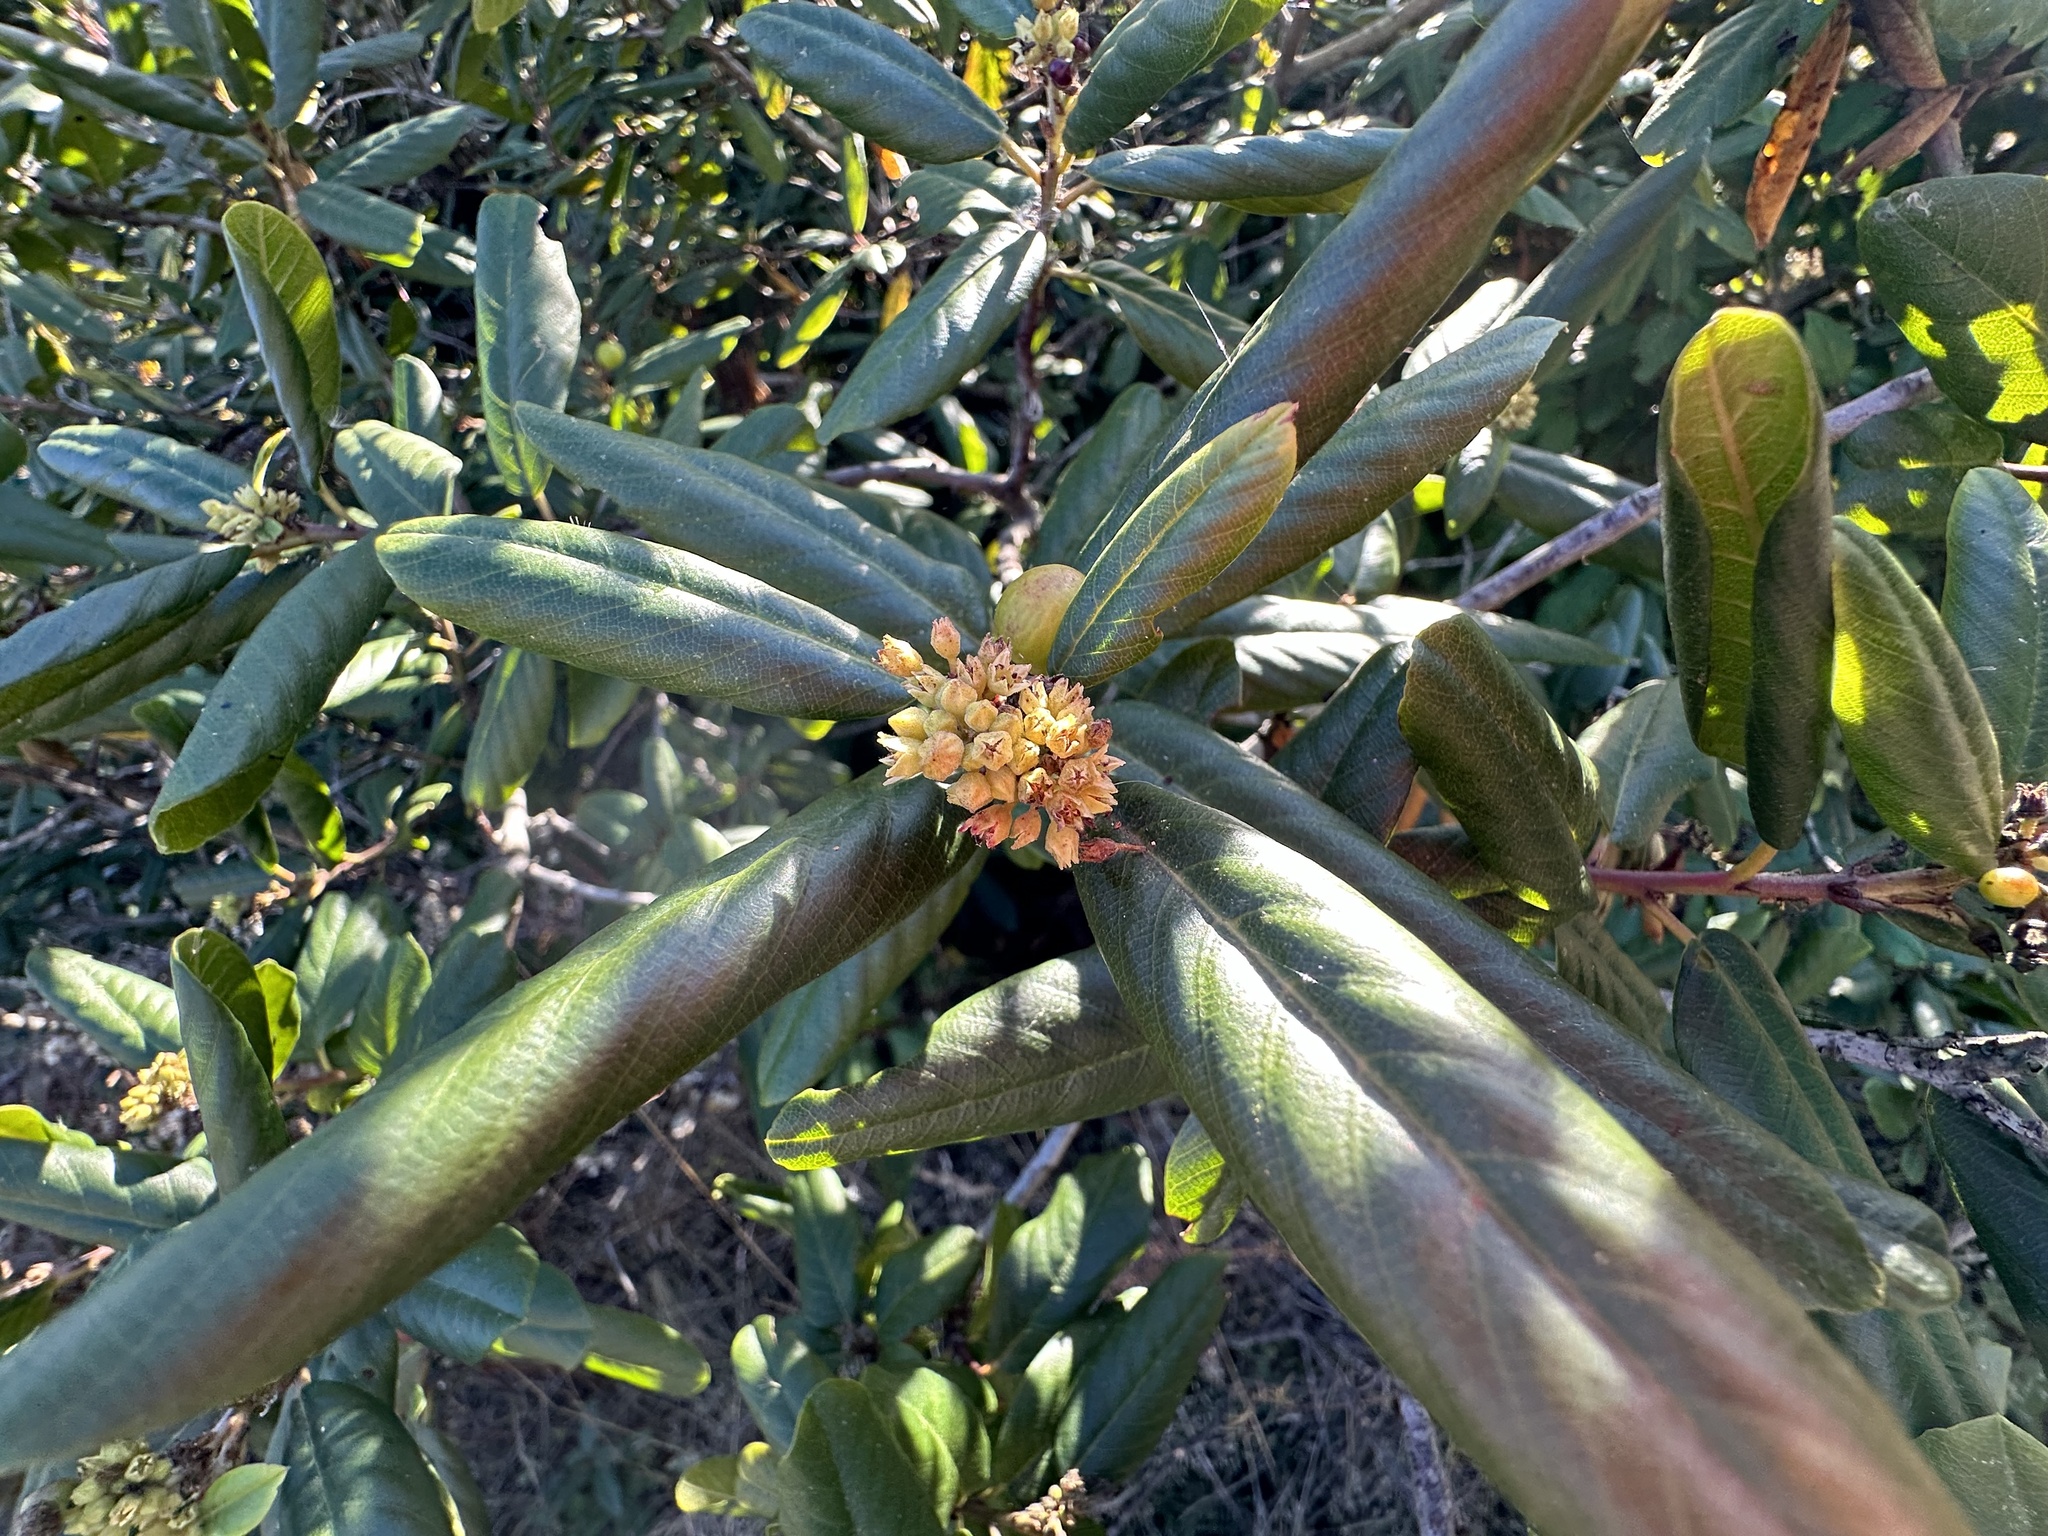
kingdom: Plantae
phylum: Tracheophyta
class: Magnoliopsida
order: Rosales
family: Rhamnaceae
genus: Frangula
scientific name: Frangula californica
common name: California buckthorn
